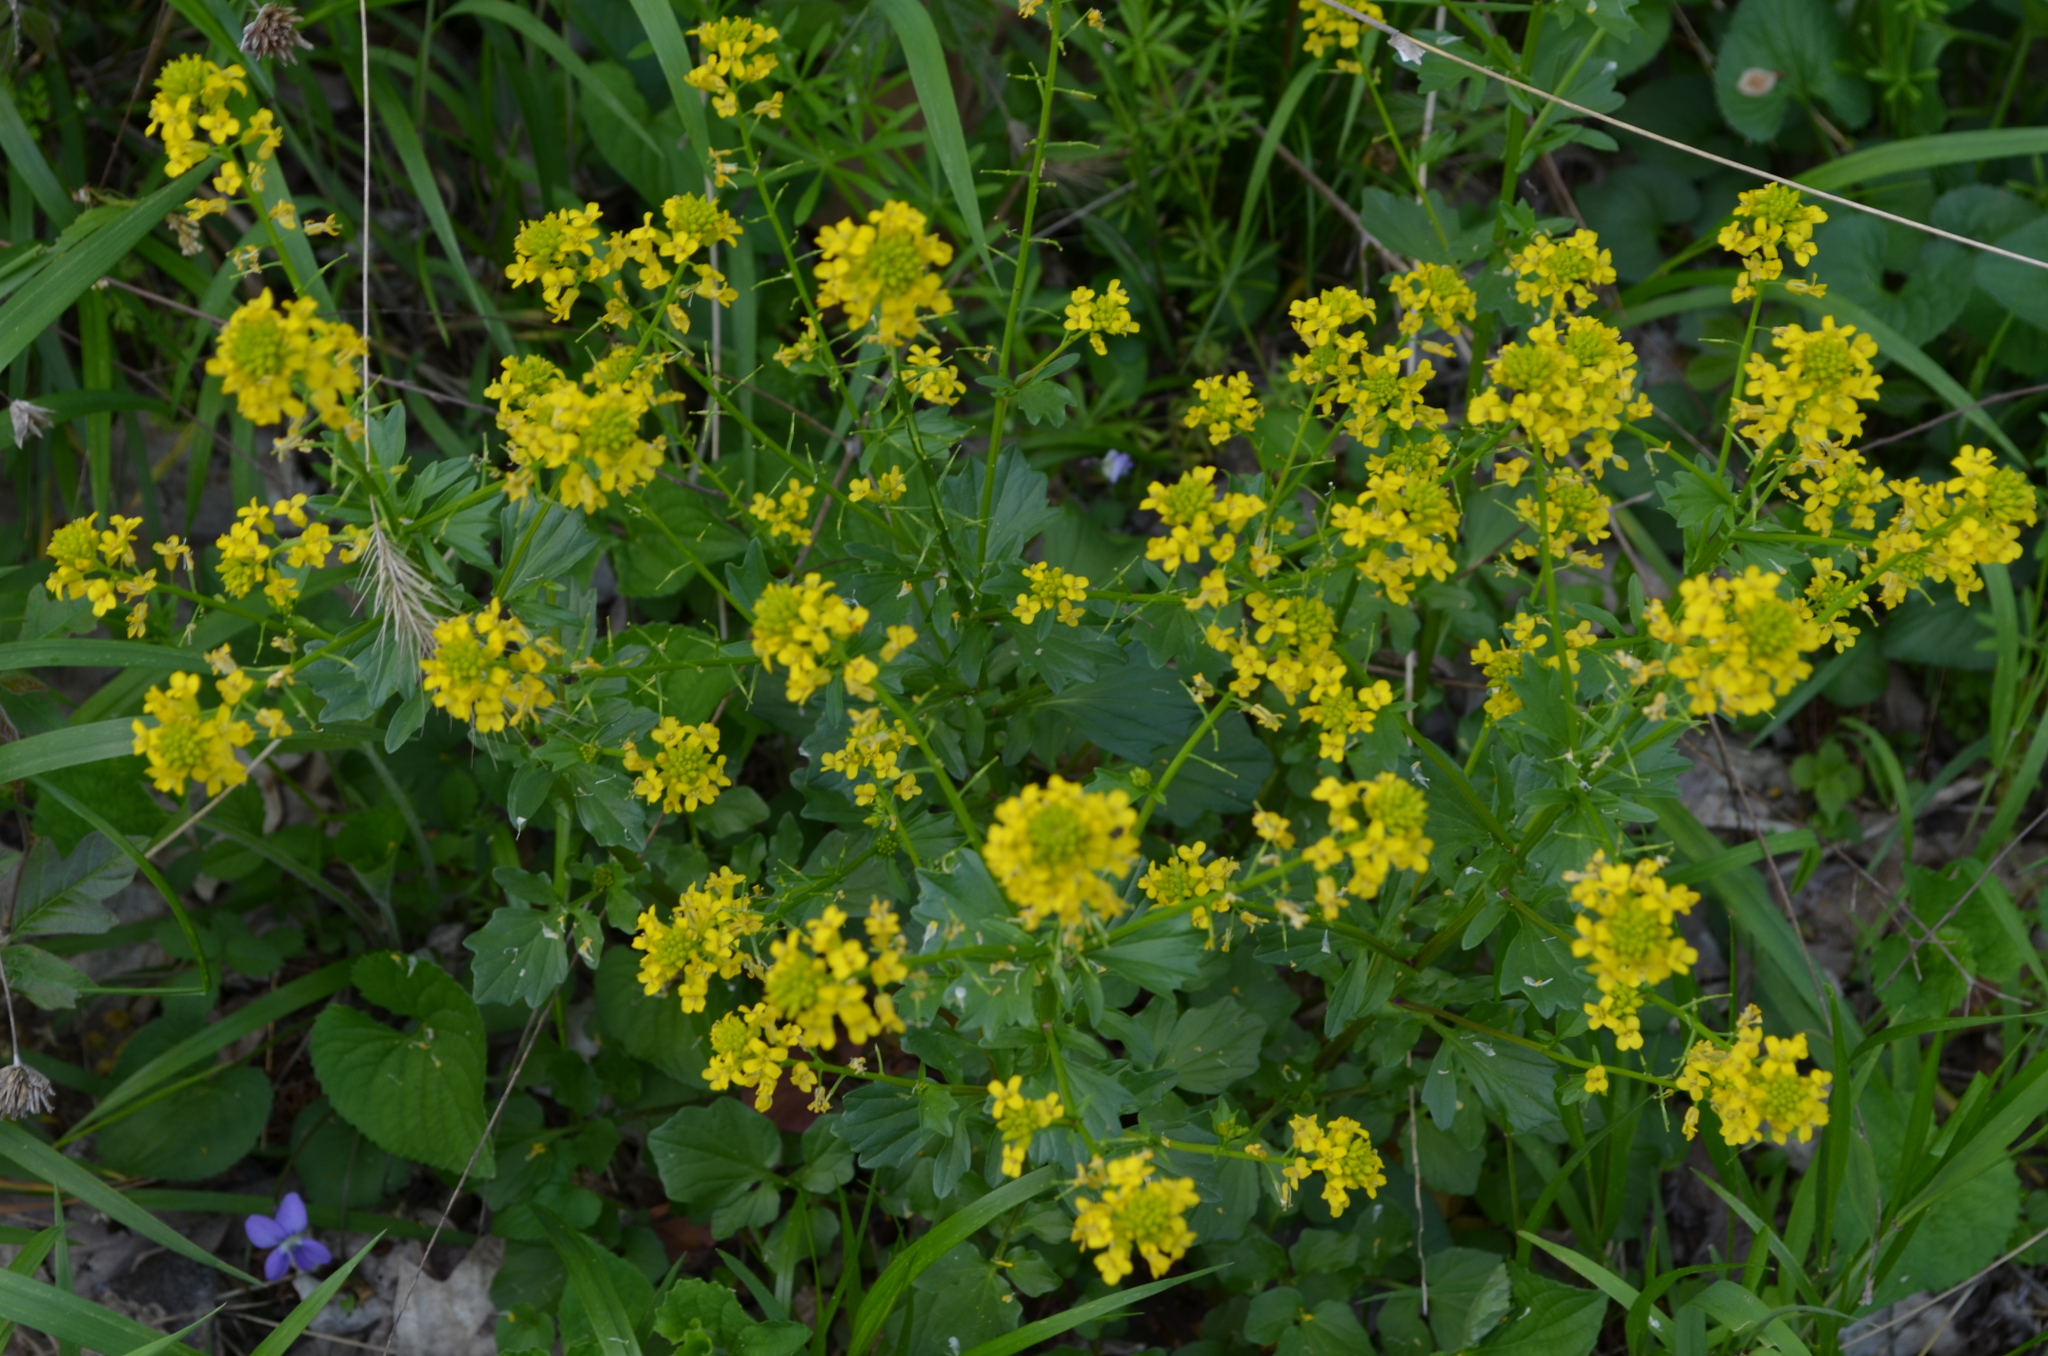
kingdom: Plantae
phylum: Tracheophyta
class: Magnoliopsida
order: Brassicales
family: Brassicaceae
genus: Barbarea
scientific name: Barbarea vulgaris
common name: Cressy-greens
